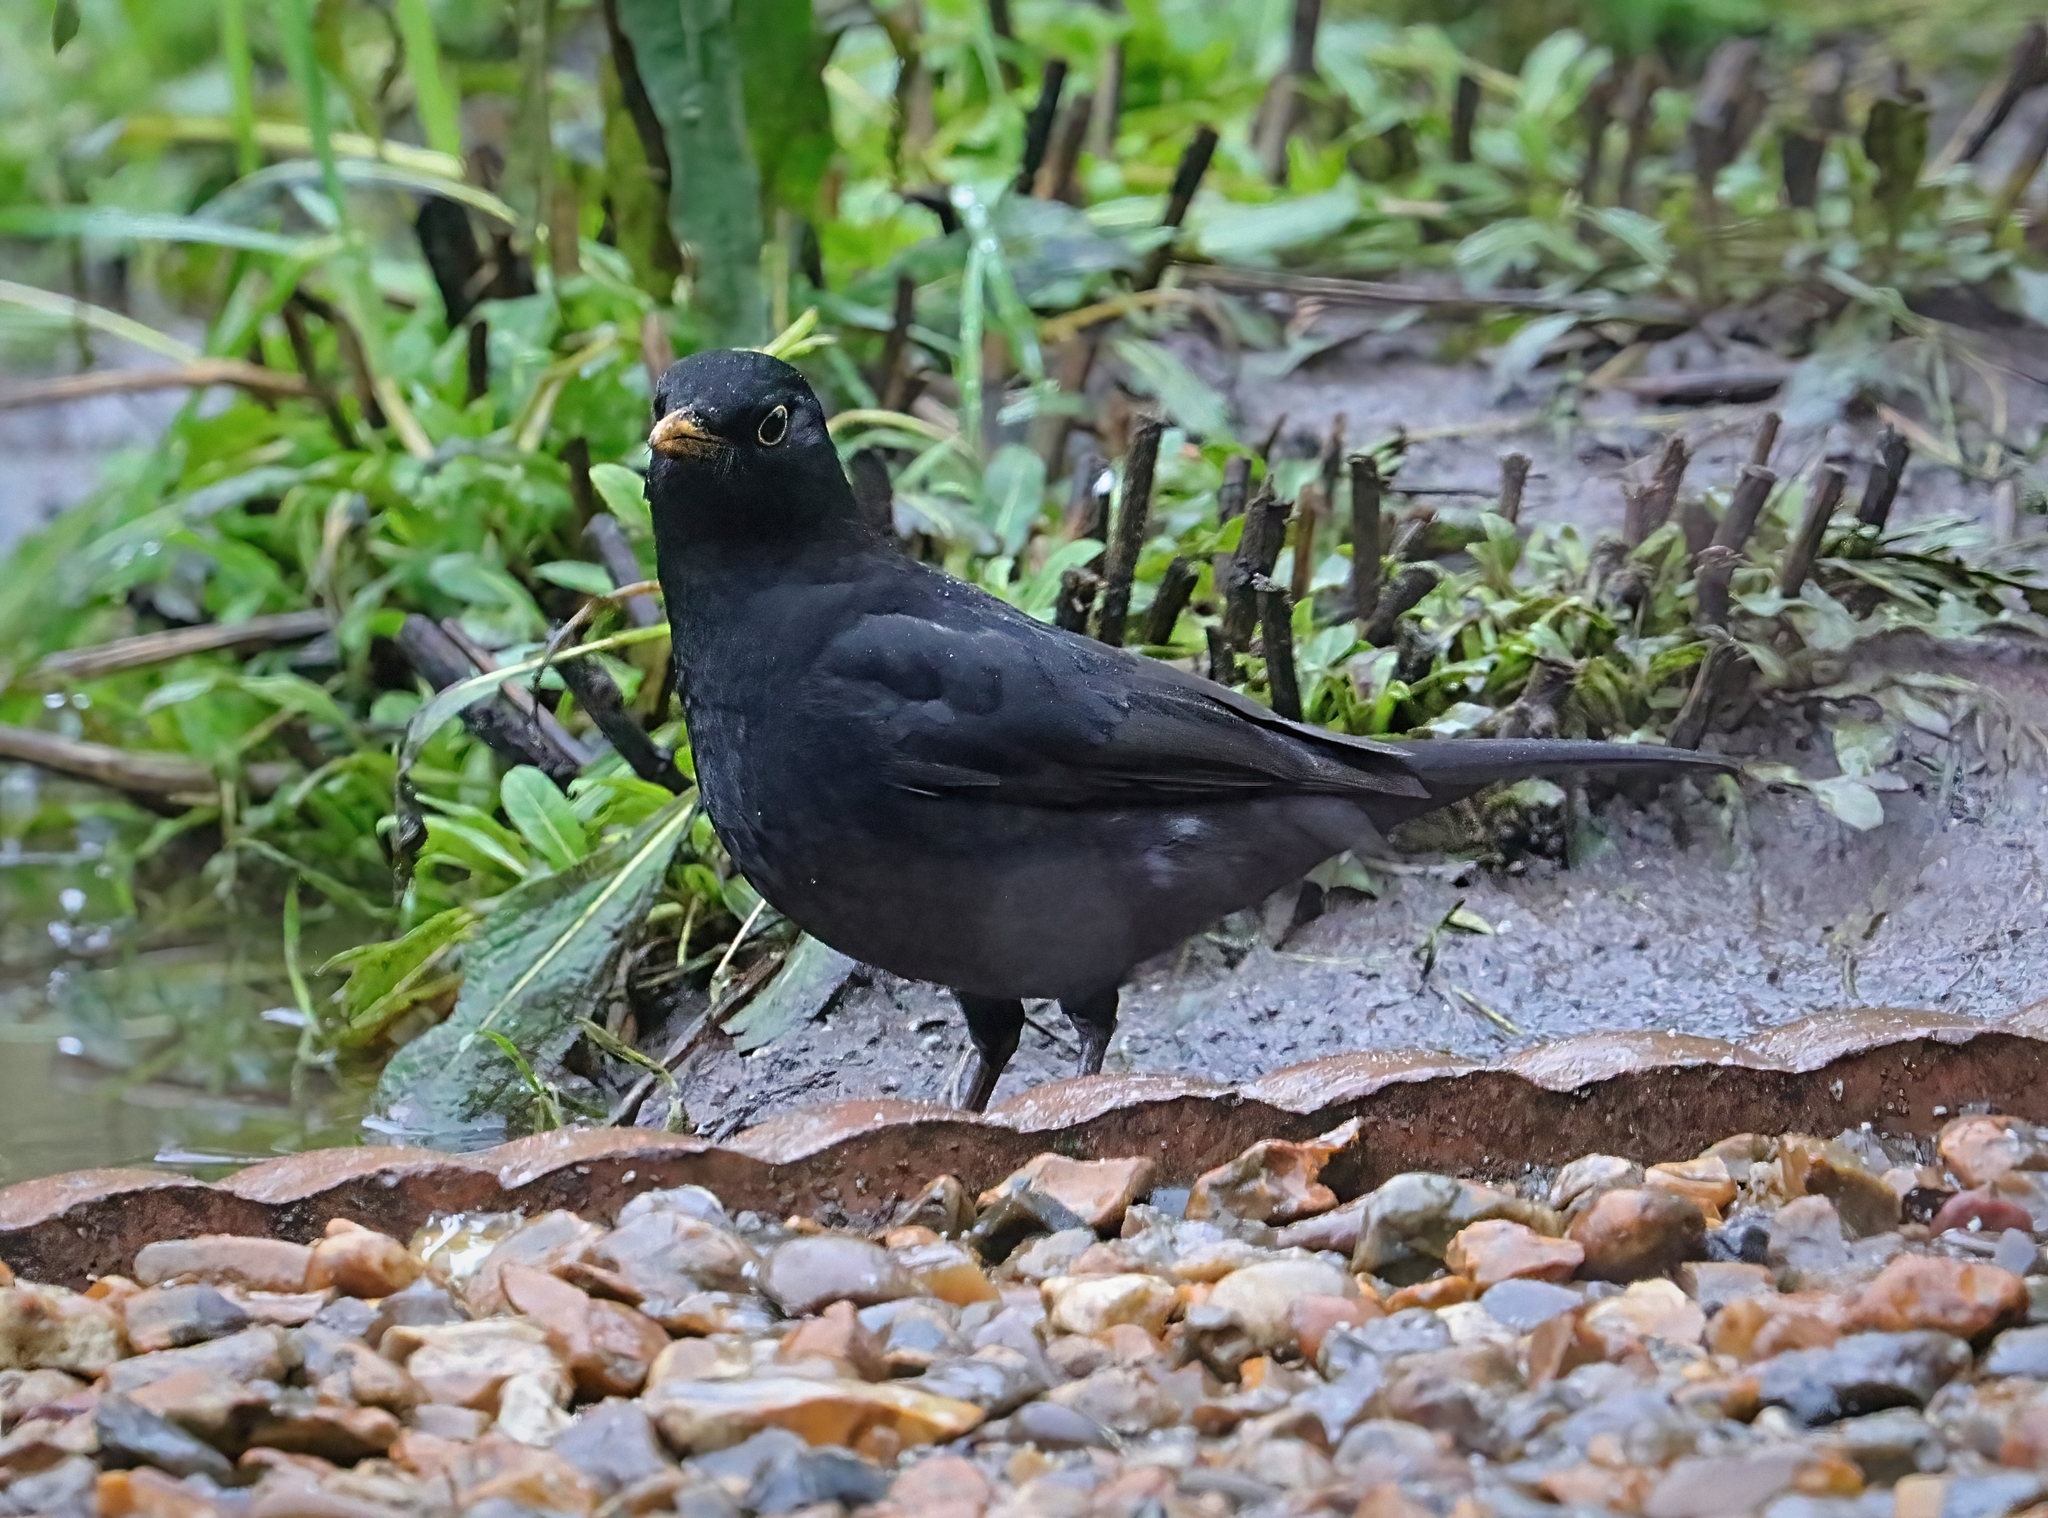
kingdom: Animalia
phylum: Chordata
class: Aves
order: Passeriformes
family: Turdidae
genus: Turdus
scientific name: Turdus merula
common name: Common blackbird
